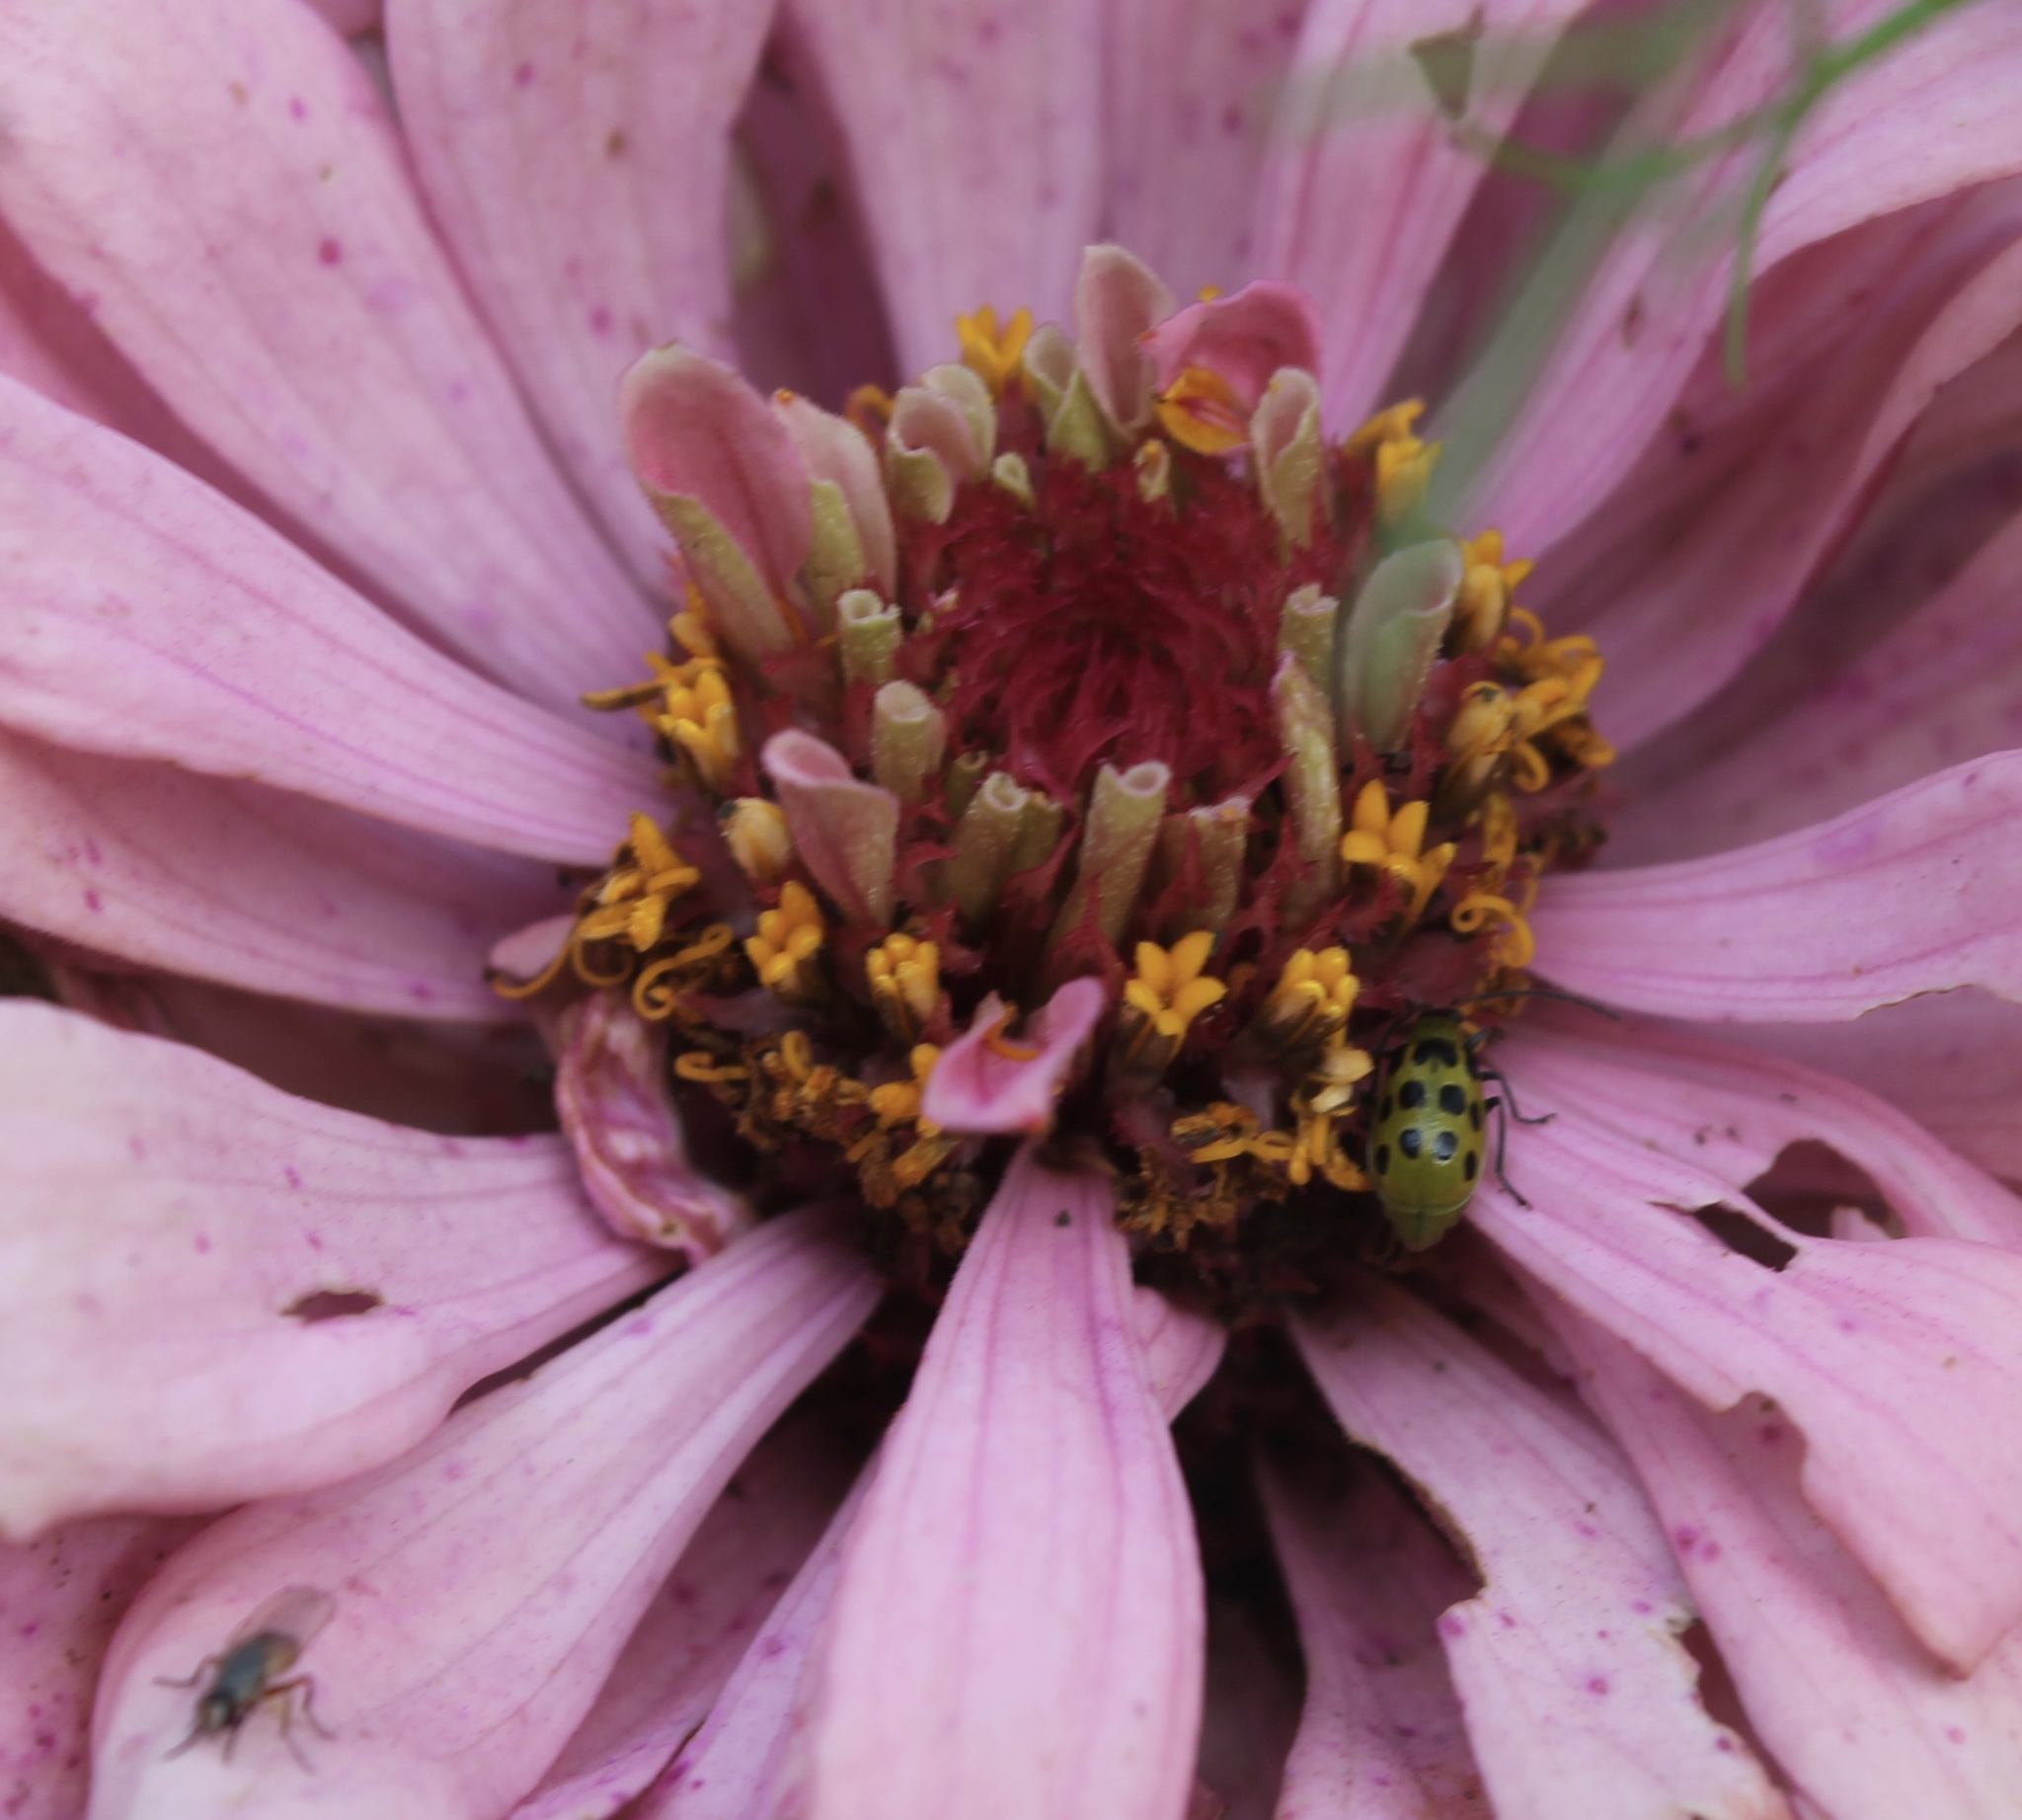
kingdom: Animalia
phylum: Arthropoda
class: Insecta
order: Coleoptera
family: Chrysomelidae
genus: Diabrotica
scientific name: Diabrotica undecimpunctata
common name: Spotted cucumber beetle
